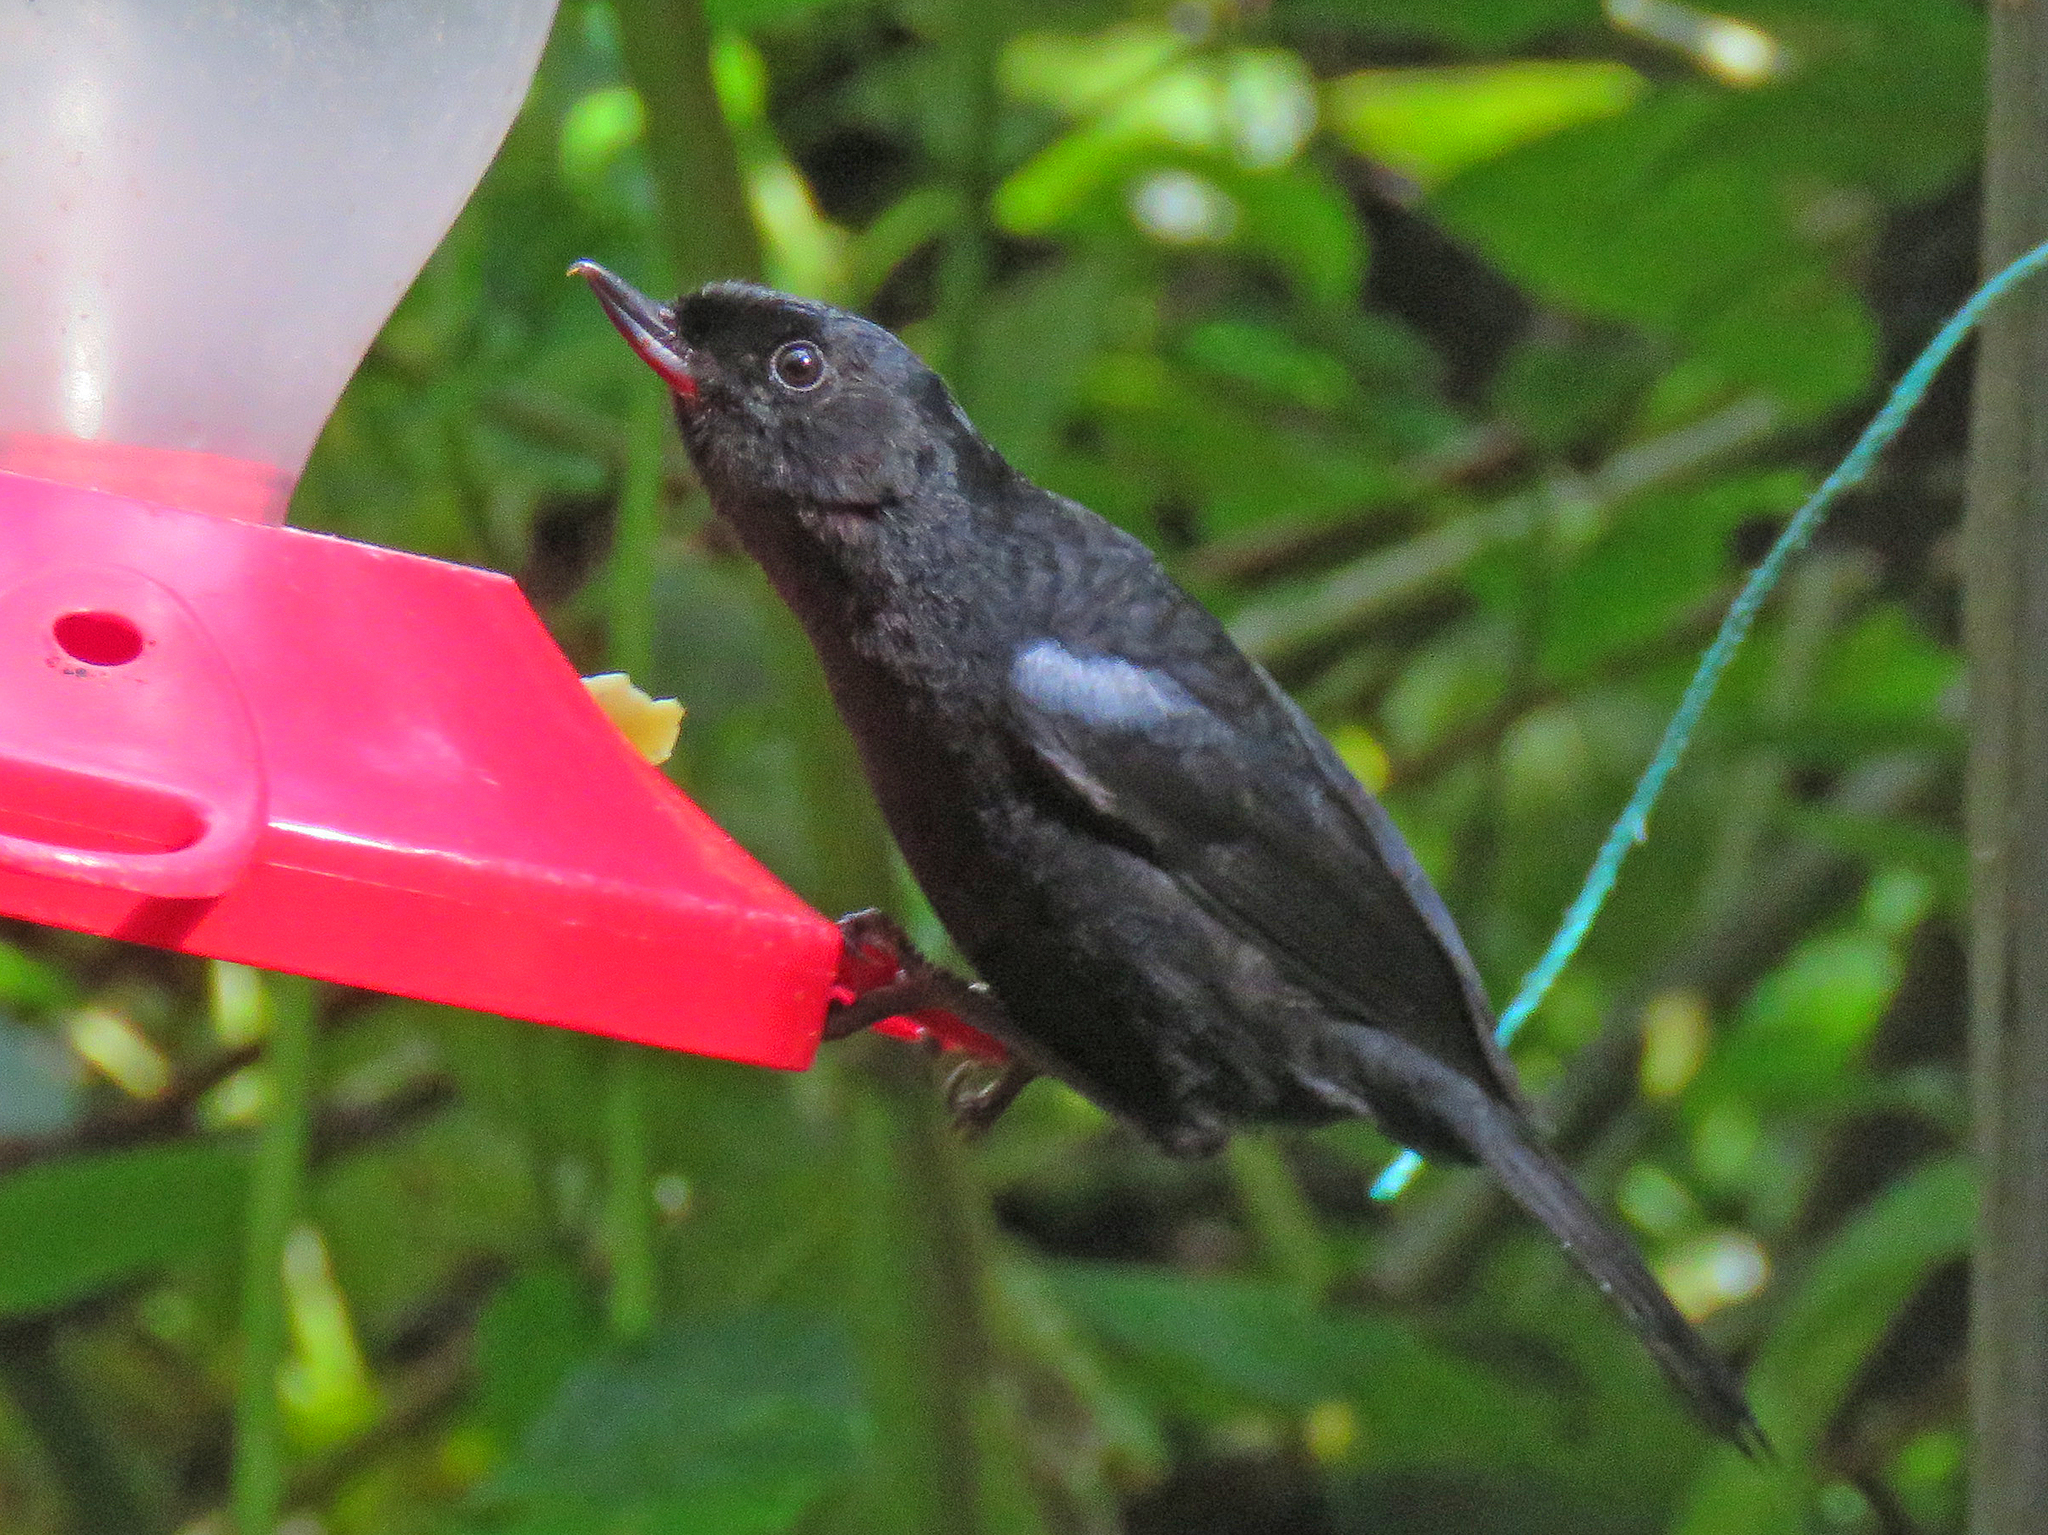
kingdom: Animalia
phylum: Chordata
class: Aves
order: Passeriformes
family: Thraupidae
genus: Diglossa
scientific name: Diglossa lafresnayii
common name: Glossy flowerpiercer
